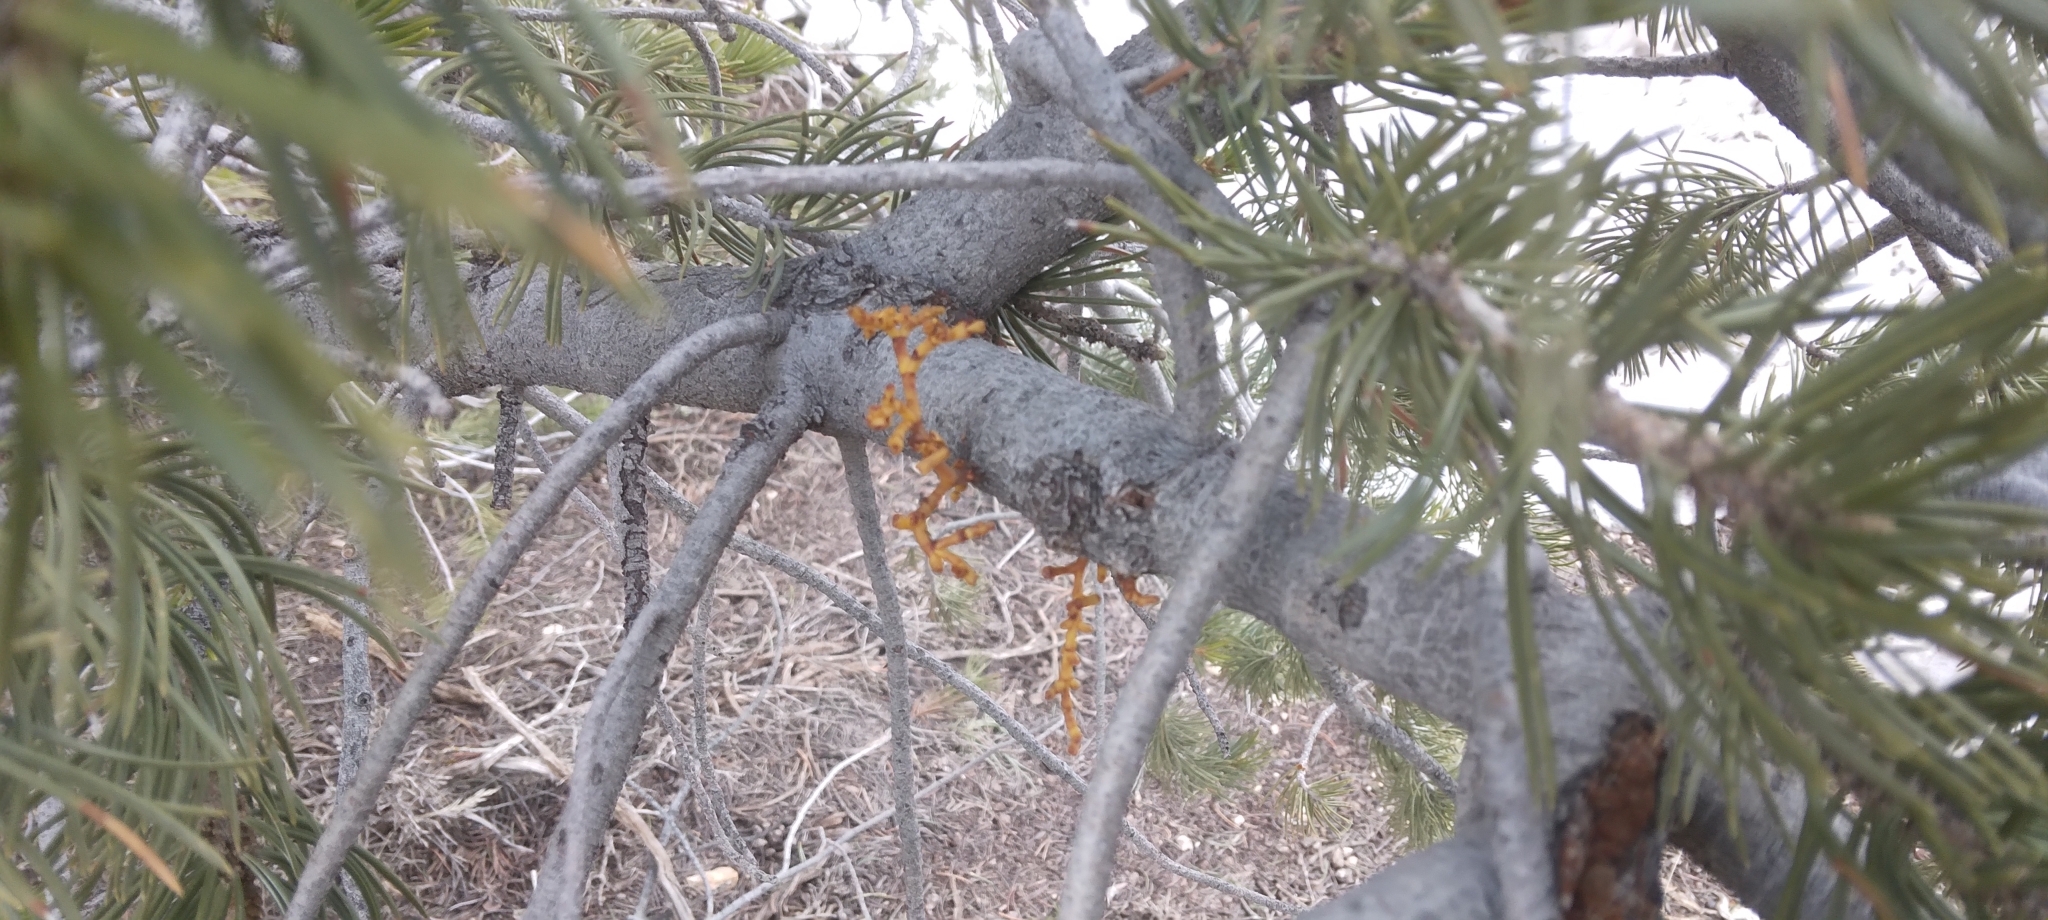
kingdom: Plantae
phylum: Tracheophyta
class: Magnoliopsida
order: Santalales
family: Viscaceae
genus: Arceuthobium
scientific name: Arceuthobium divaricatum
